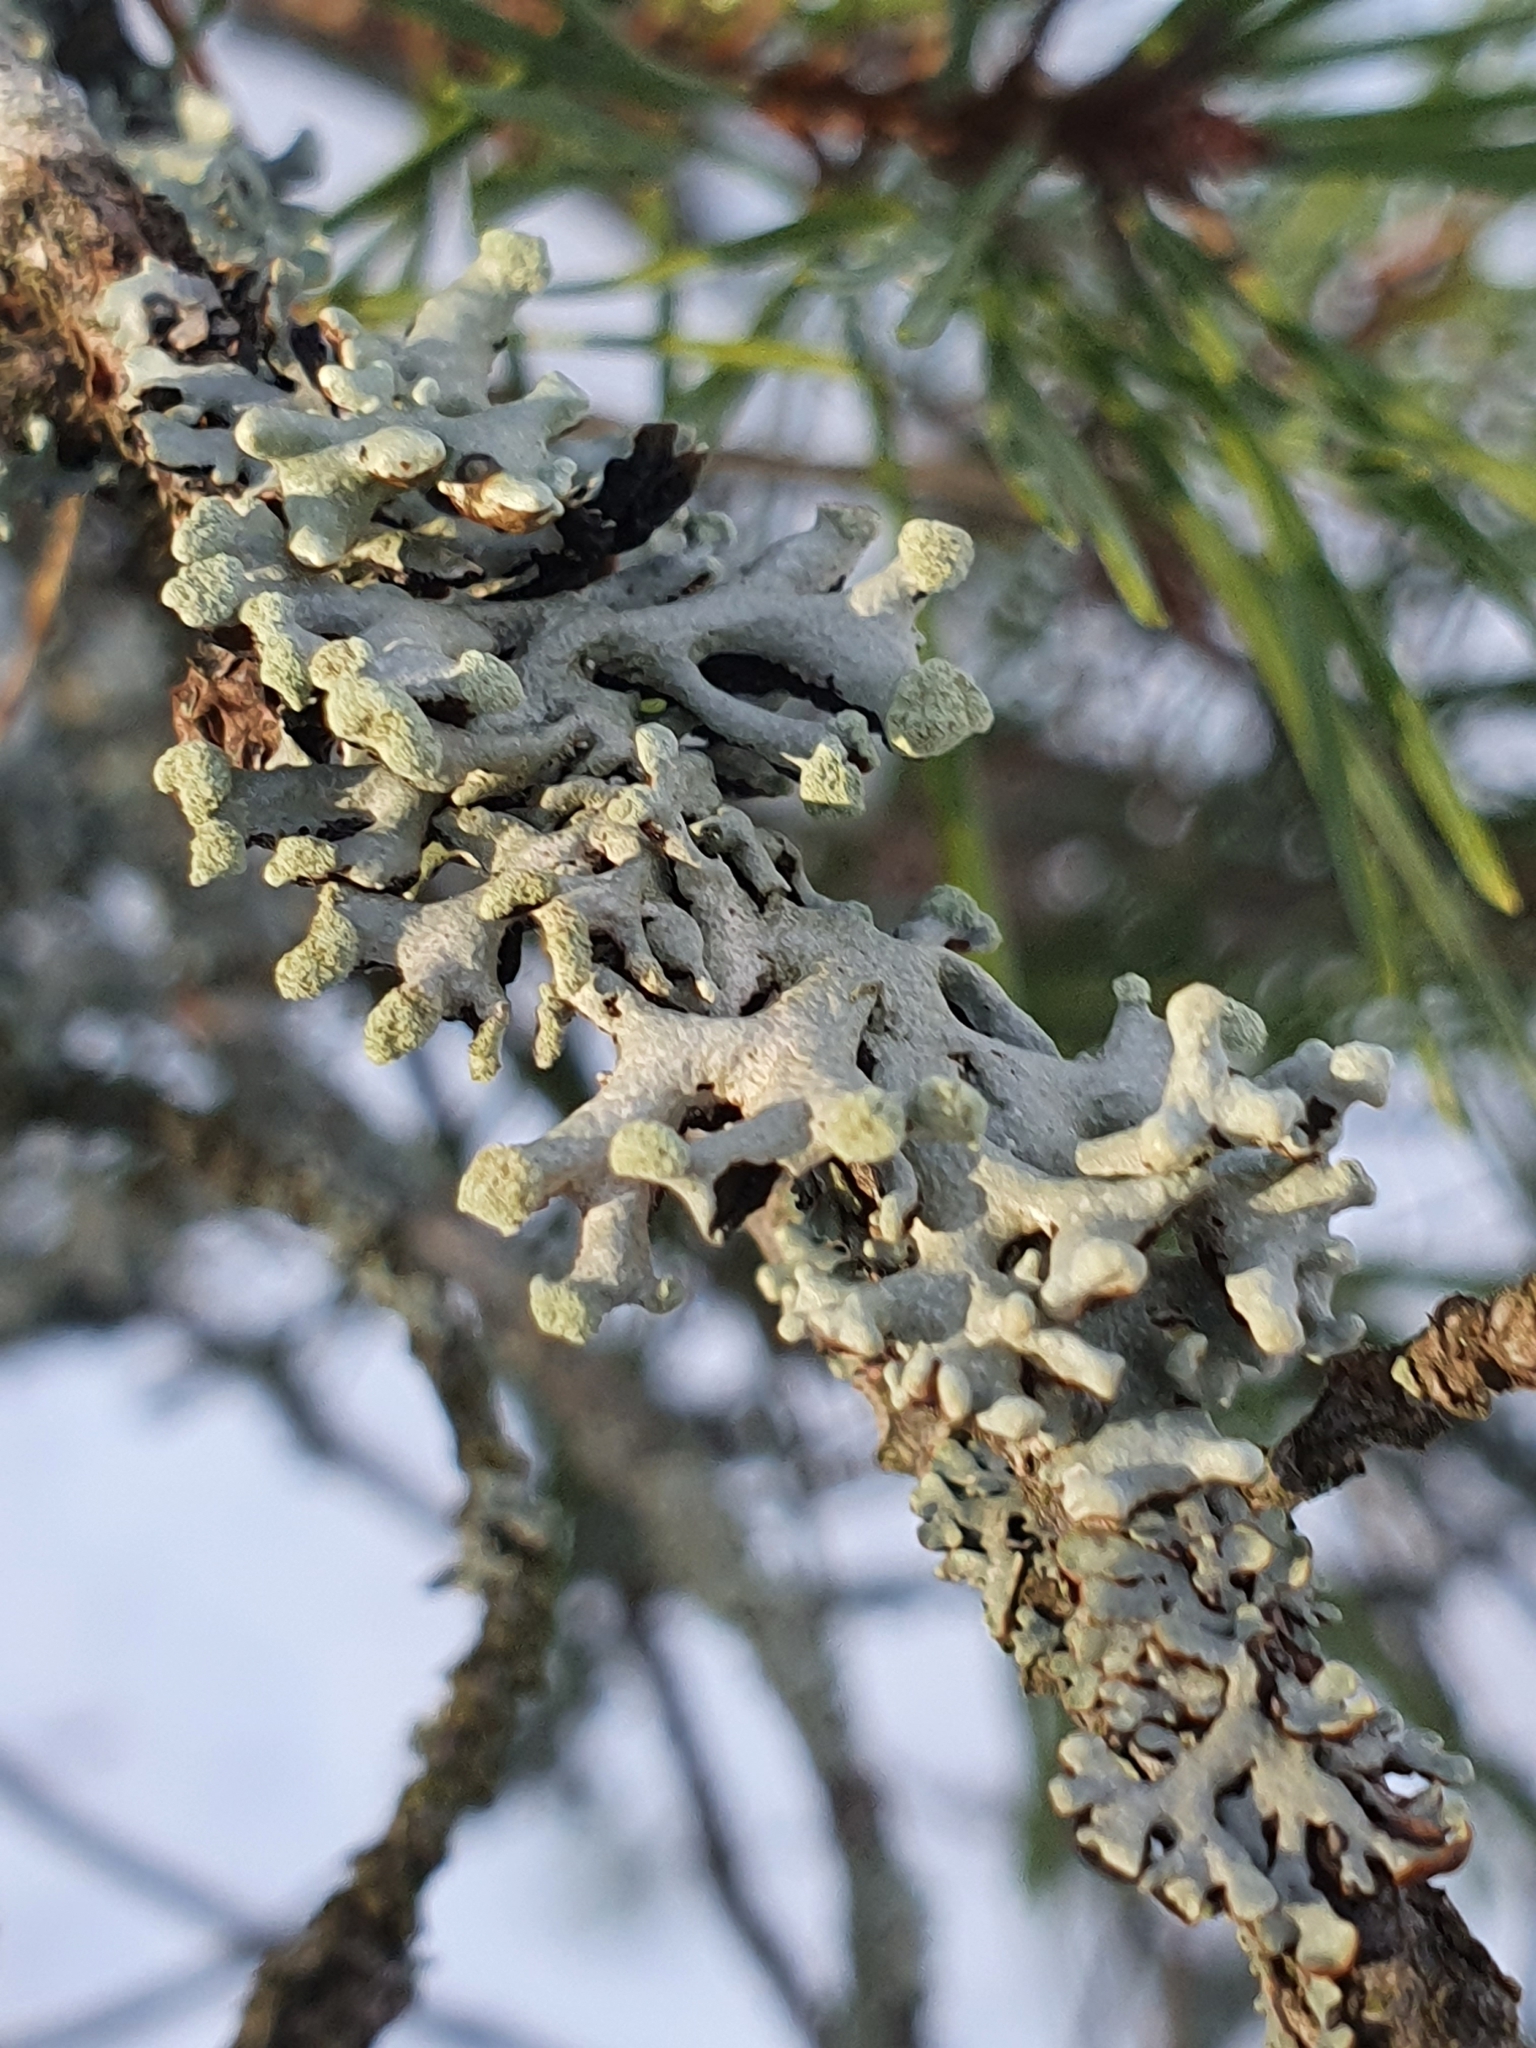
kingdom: Fungi
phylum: Ascomycota
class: Lecanoromycetes
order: Lecanorales
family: Parmeliaceae
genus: Hypogymnia
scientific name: Hypogymnia tubulosa
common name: Powder-headed tube lichen
